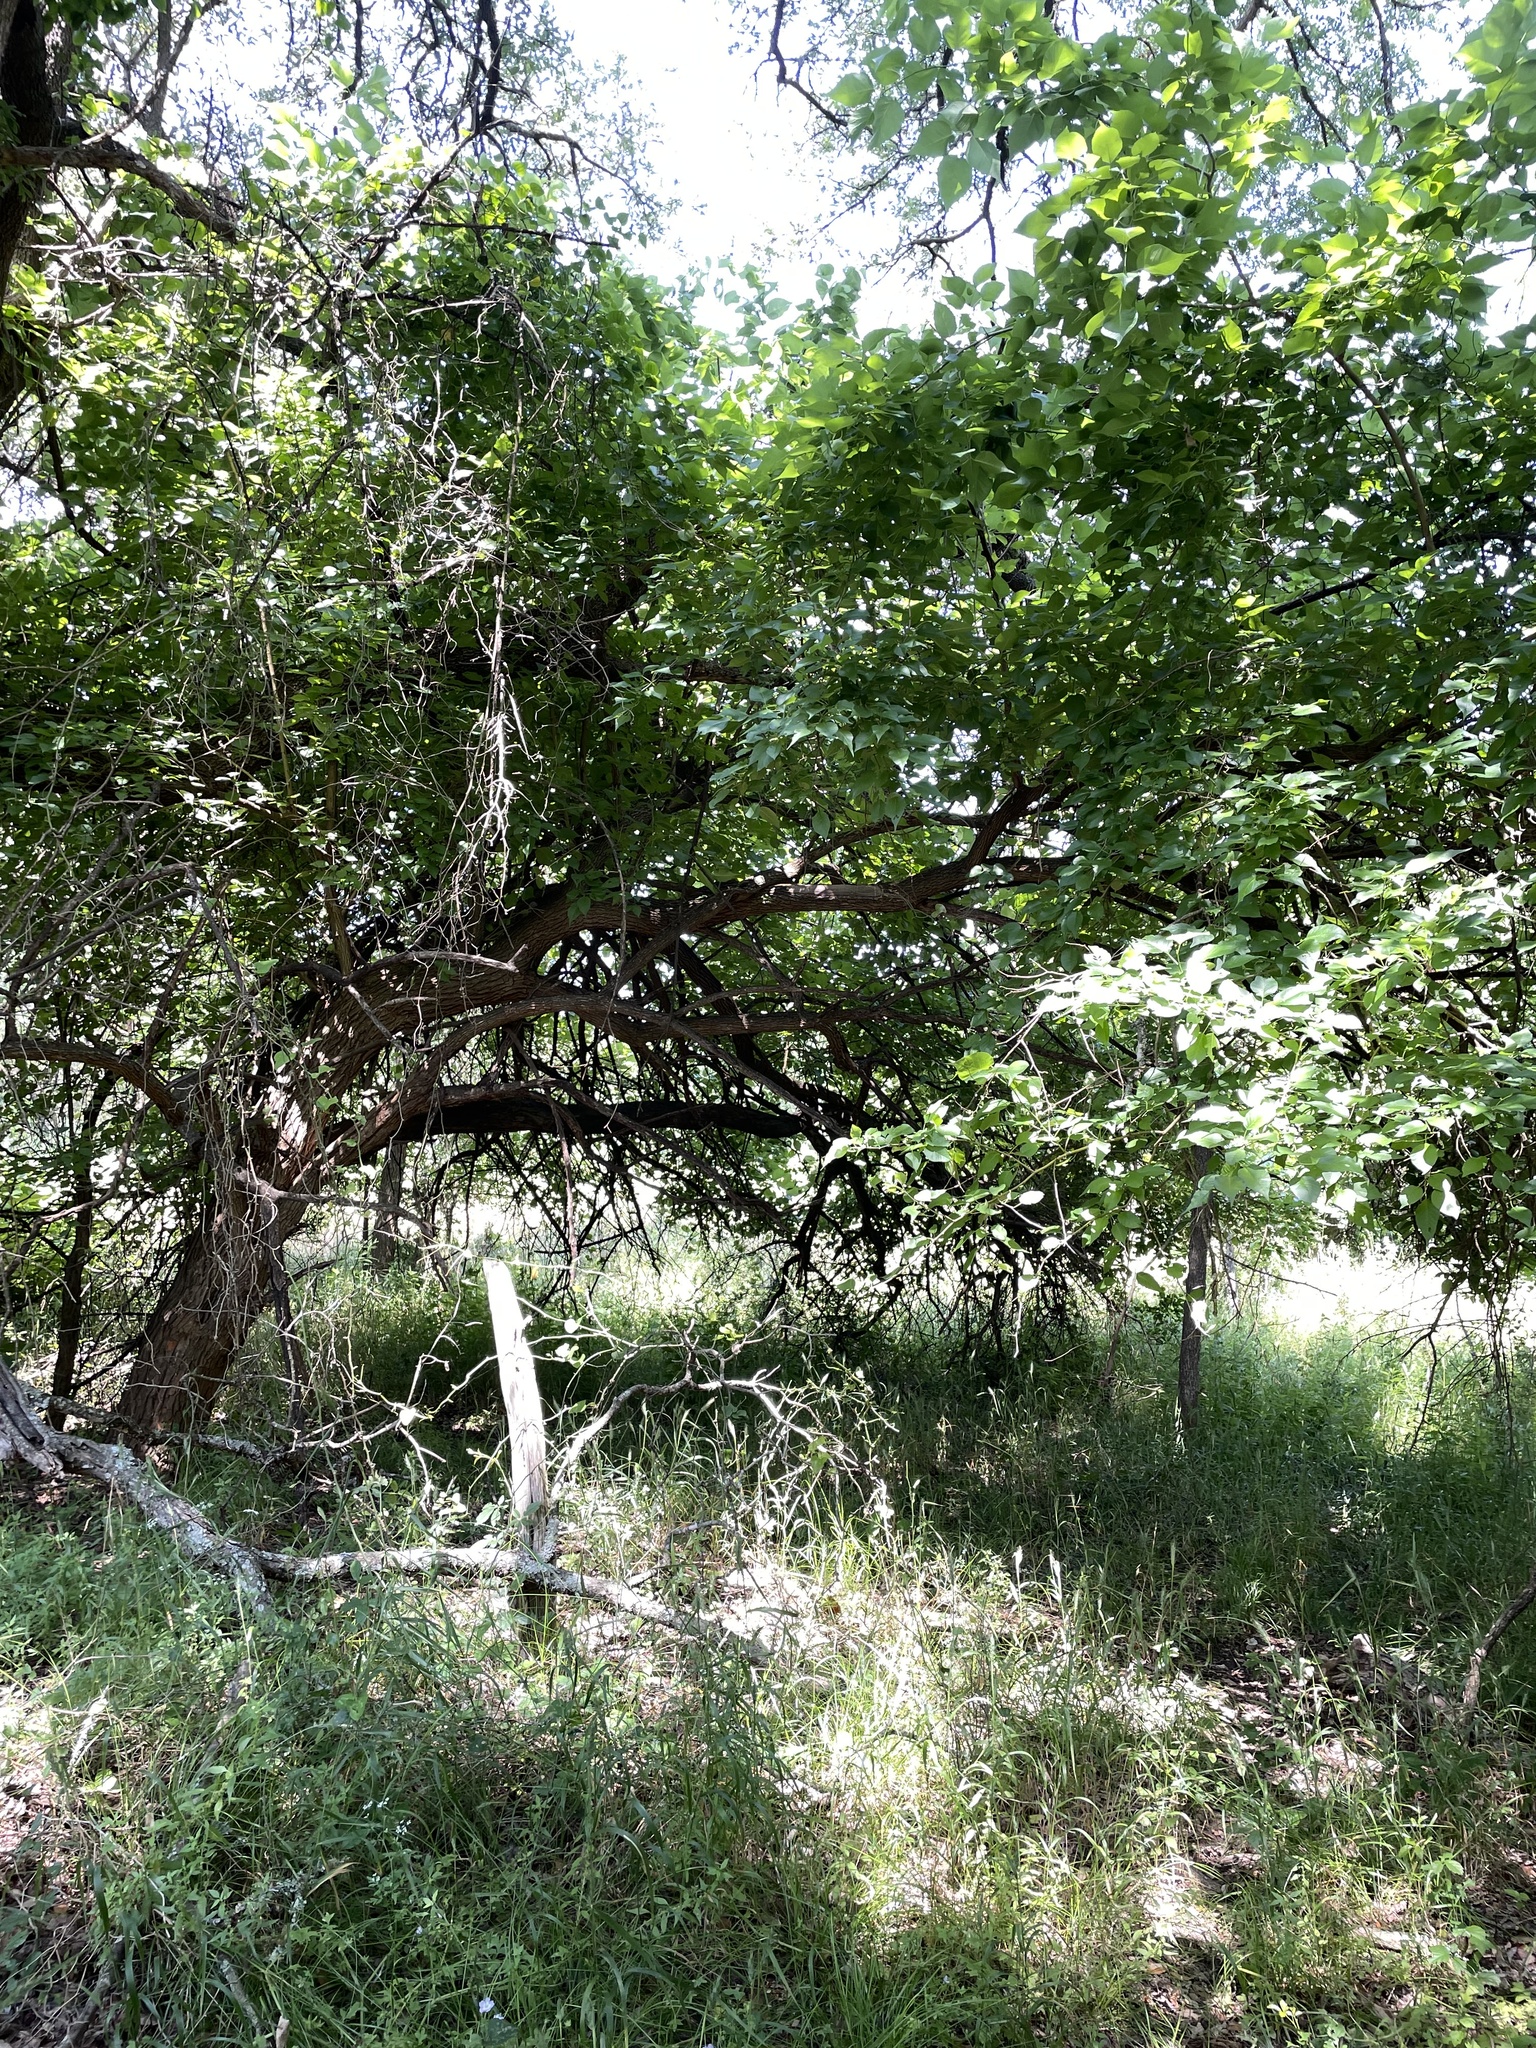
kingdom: Plantae
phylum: Tracheophyta
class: Magnoliopsida
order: Rosales
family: Moraceae
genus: Maclura
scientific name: Maclura pomifera
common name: Osage-orange
